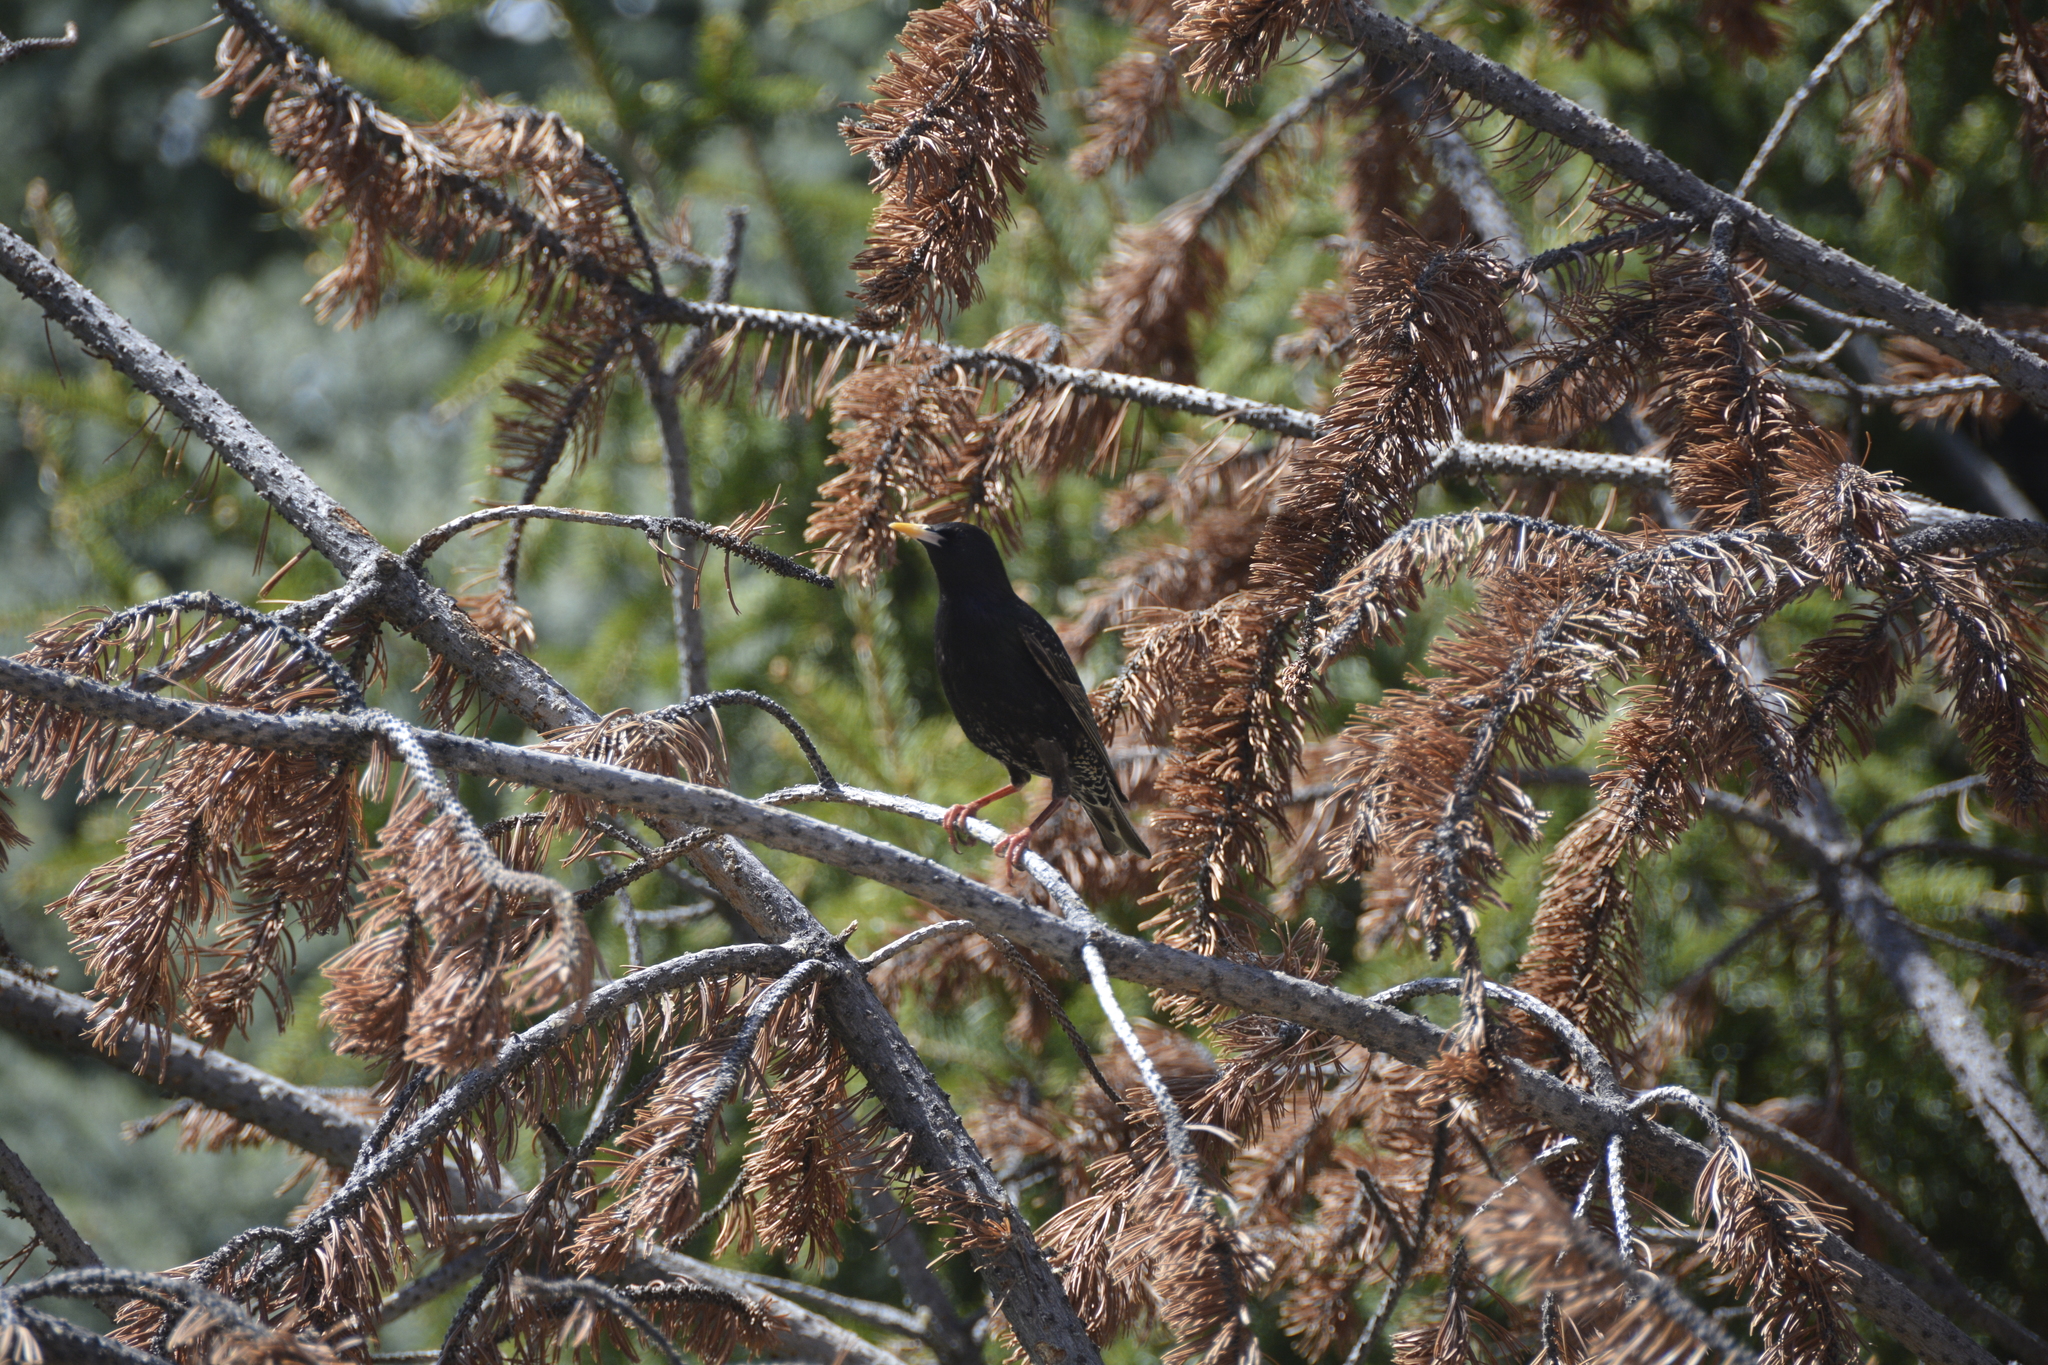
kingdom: Animalia
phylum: Chordata
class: Aves
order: Passeriformes
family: Sturnidae
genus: Sturnus
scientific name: Sturnus vulgaris
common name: Common starling
